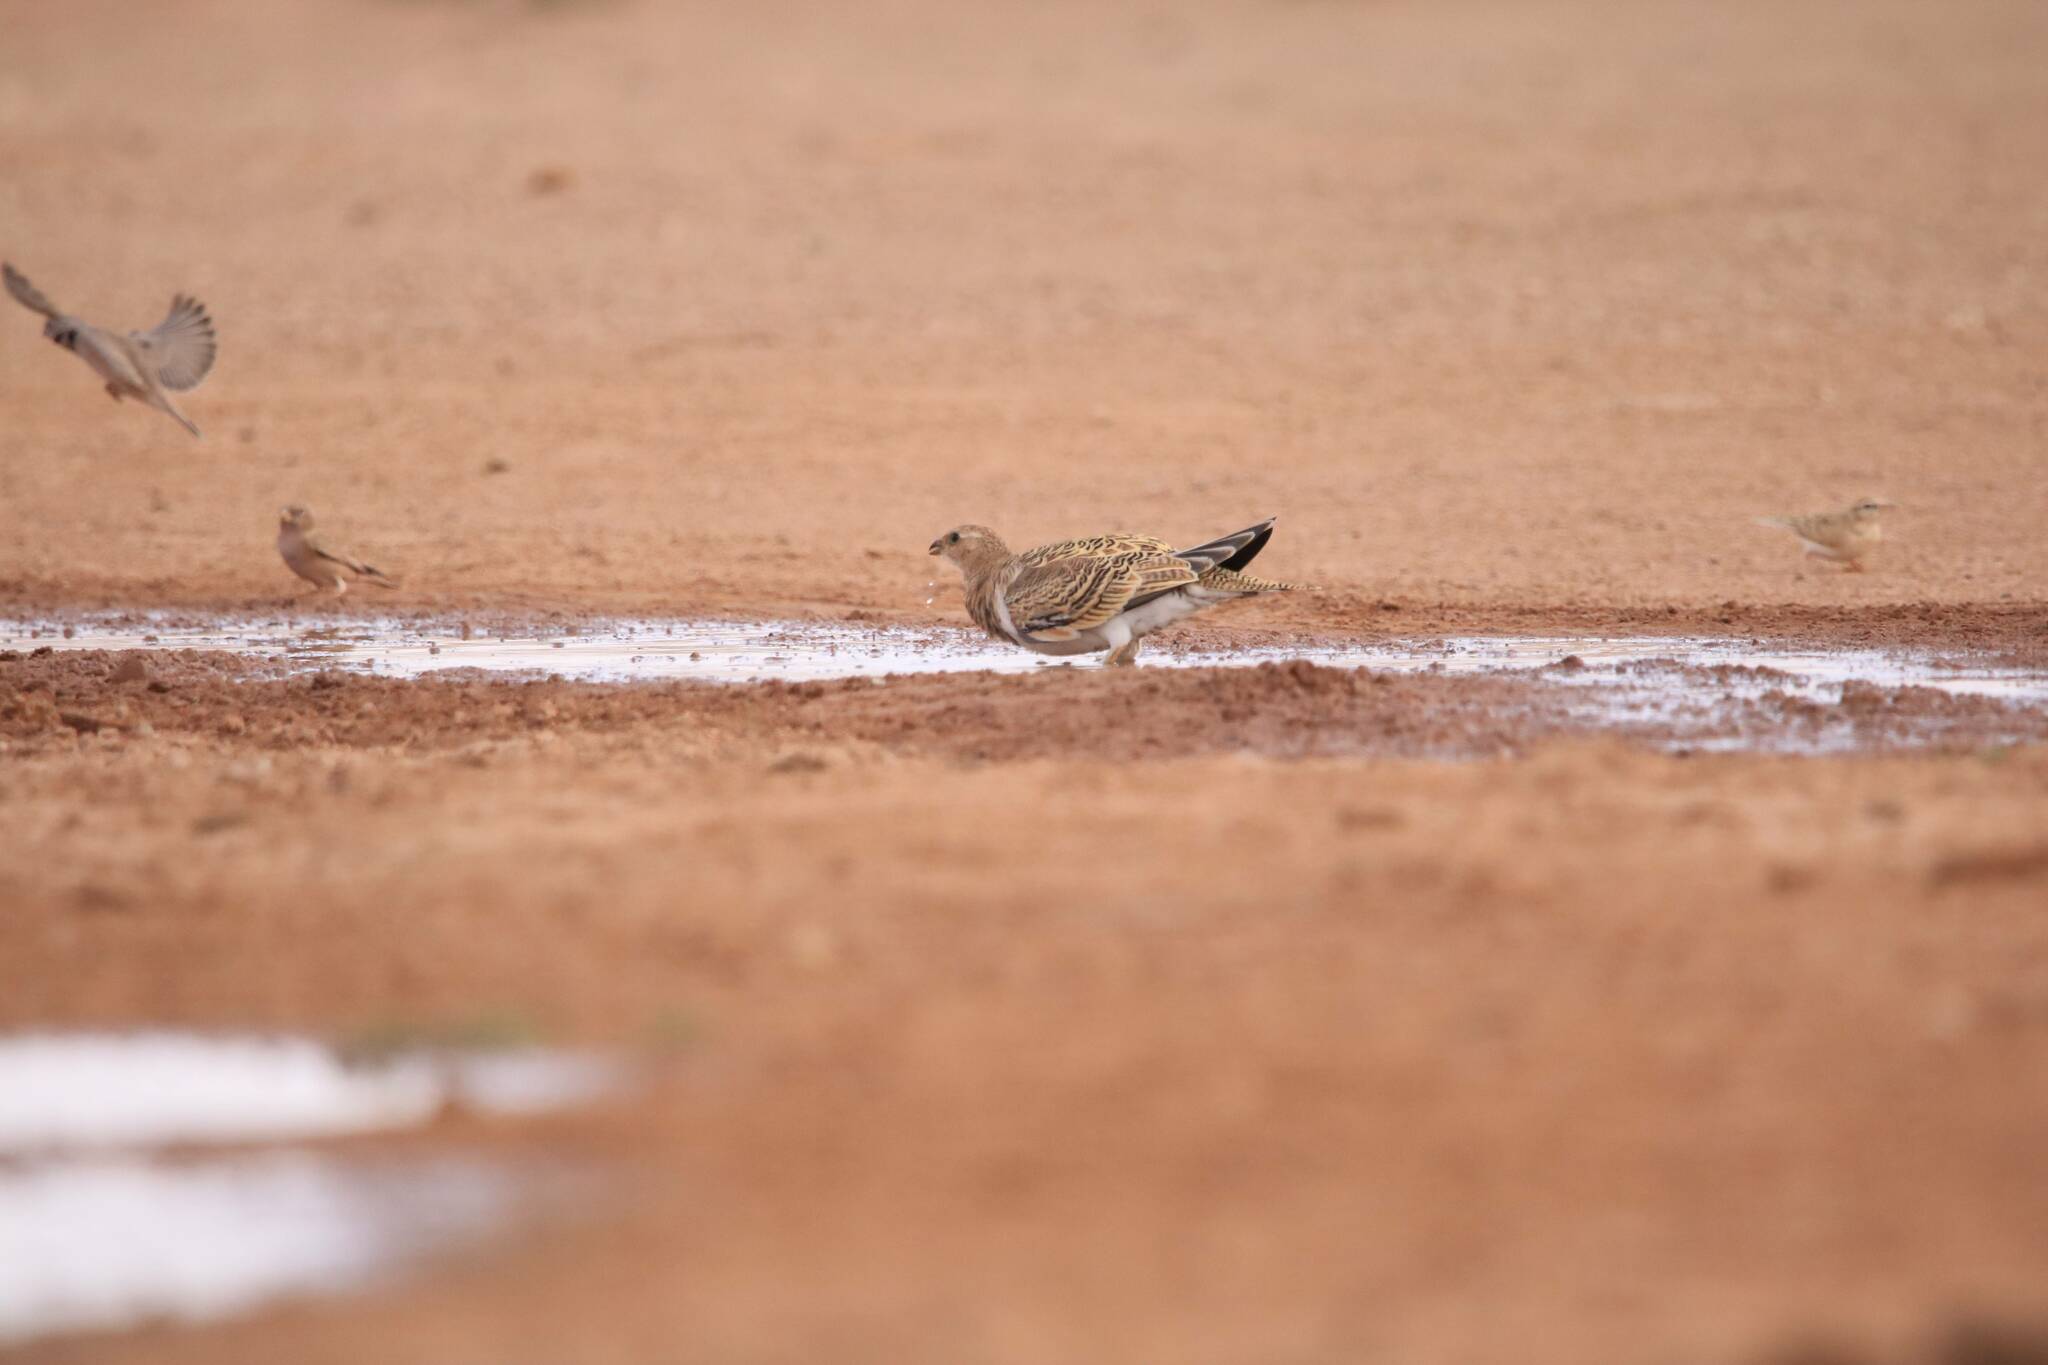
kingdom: Animalia
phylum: Chordata
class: Aves
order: Pteroclidiformes
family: Pteroclididae
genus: Pterocles
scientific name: Pterocles alchata
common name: Pin-tailed sandgrouse
